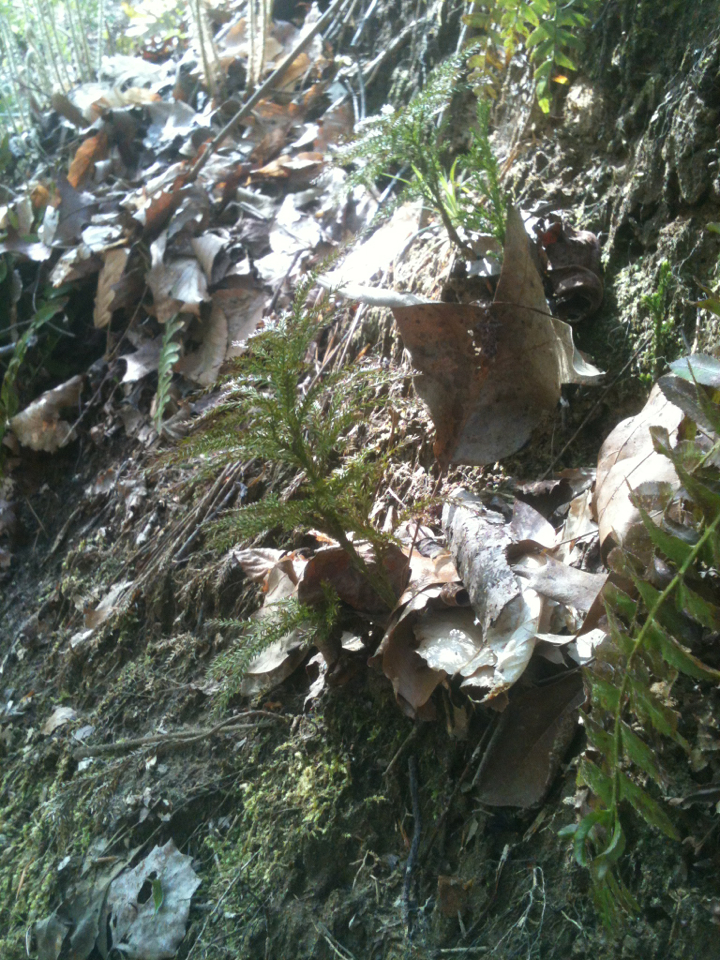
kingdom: Plantae
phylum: Tracheophyta
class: Lycopodiopsida
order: Lycopodiales
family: Lycopodiaceae
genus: Dendrolycopodium
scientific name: Dendrolycopodium obscurum
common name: Common ground-pine
